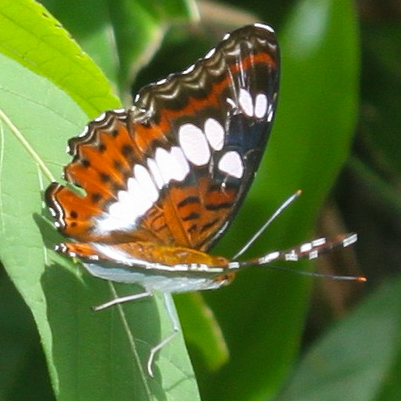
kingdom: Animalia
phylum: Arthropoda
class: Insecta
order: Lepidoptera
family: Nymphalidae
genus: Limenitis
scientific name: Limenitis Moduza procris
